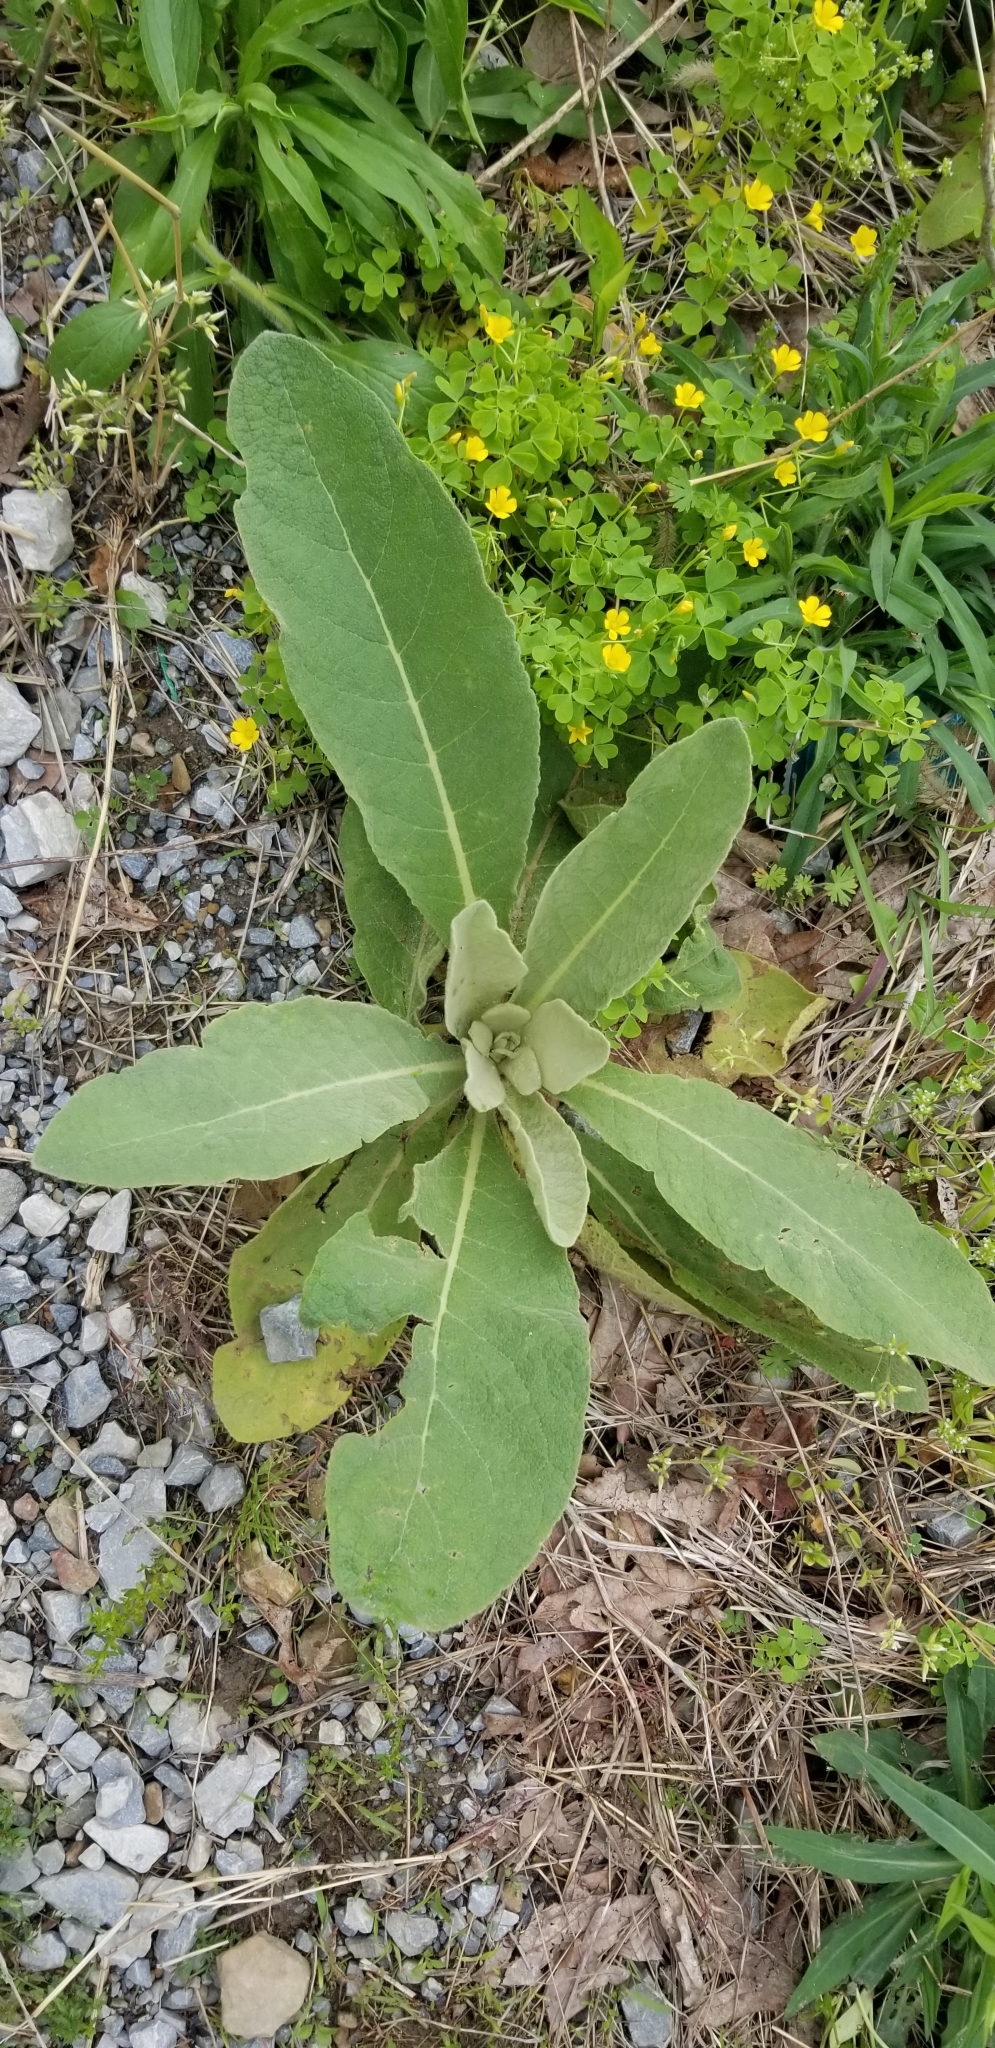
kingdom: Plantae
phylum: Tracheophyta
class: Magnoliopsida
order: Lamiales
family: Scrophulariaceae
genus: Verbascum
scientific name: Verbascum thapsus
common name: Common mullein
